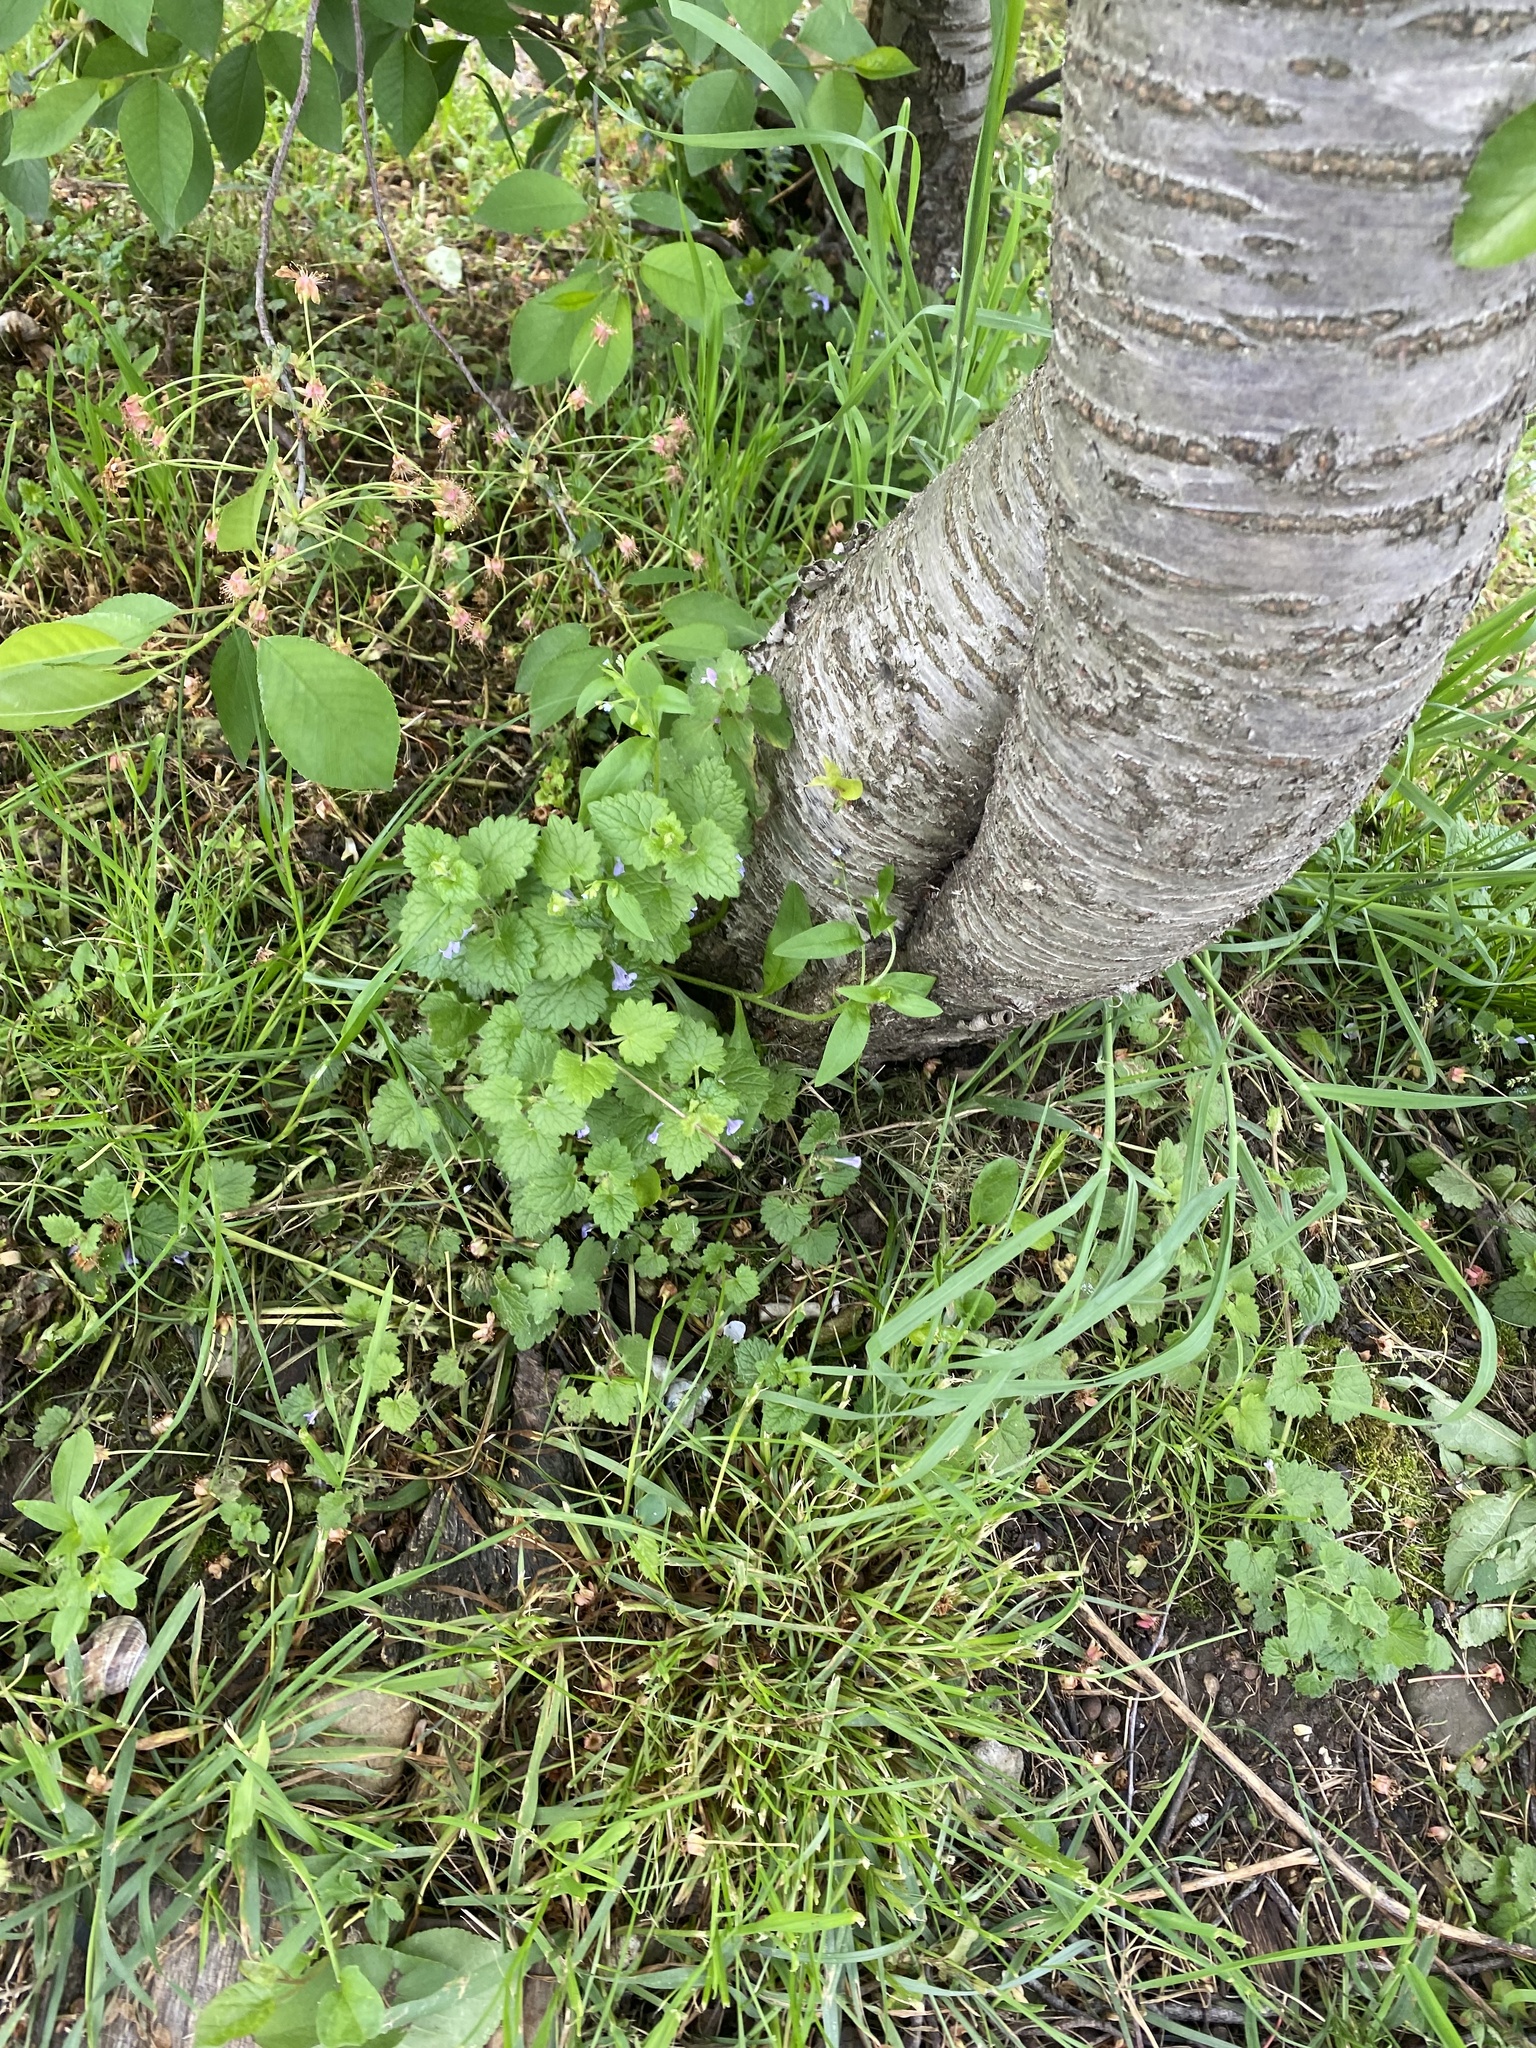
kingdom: Plantae
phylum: Tracheophyta
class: Magnoliopsida
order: Lamiales
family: Lamiaceae
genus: Glechoma
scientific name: Glechoma hederacea
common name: Ground ivy
